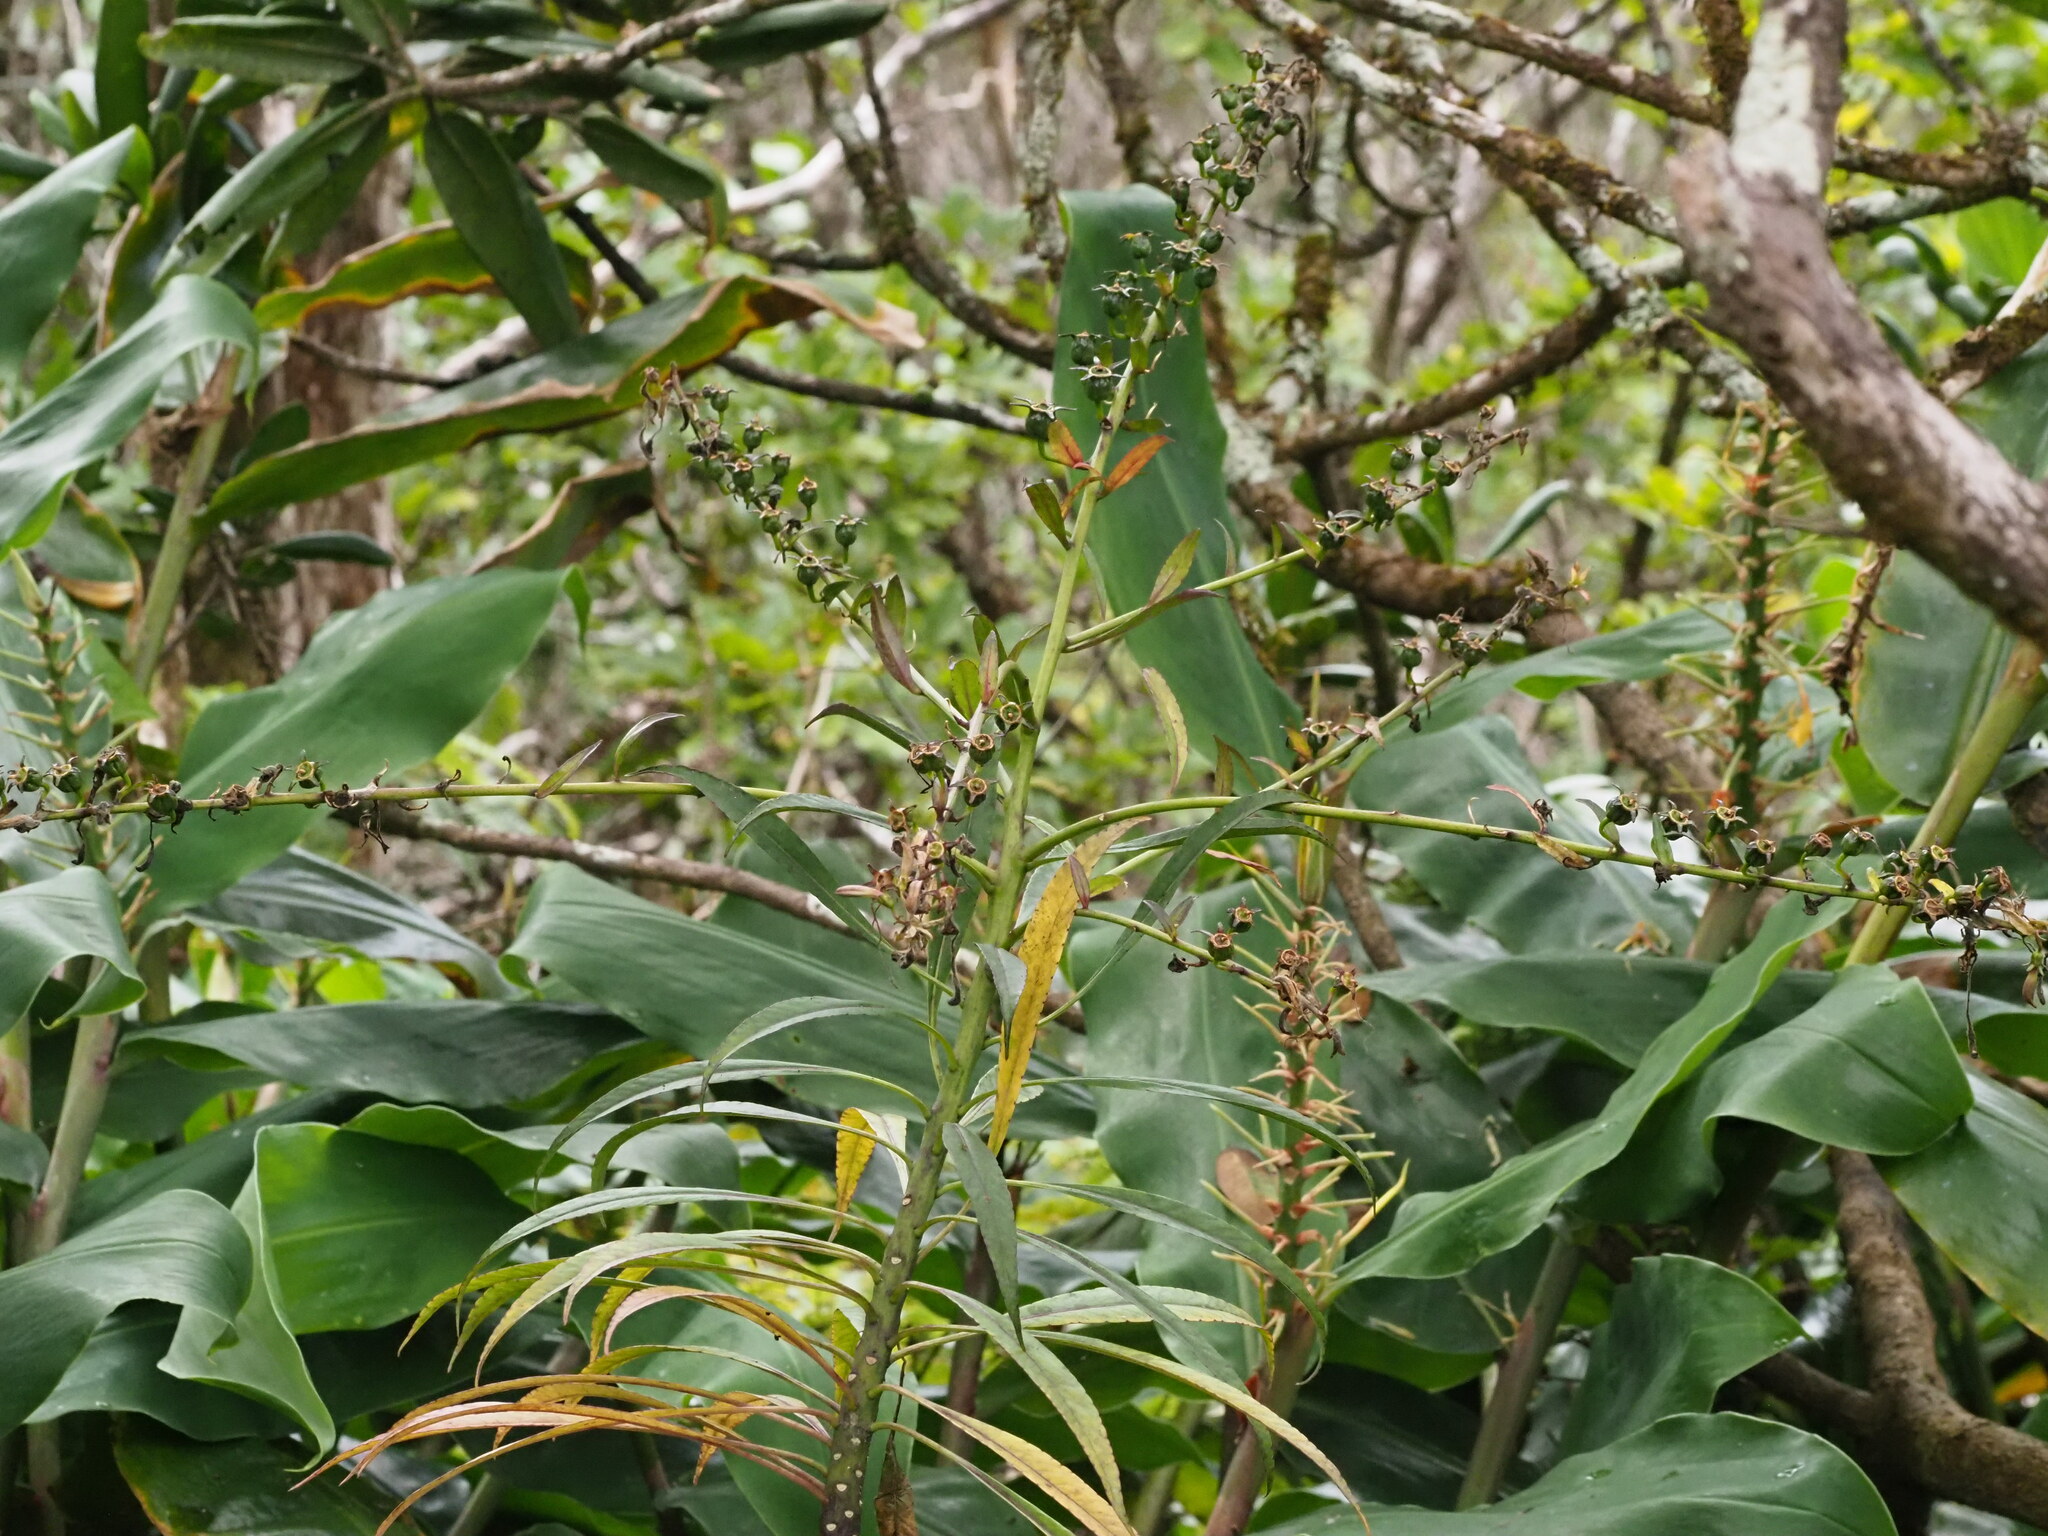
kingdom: Plantae
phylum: Tracheophyta
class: Magnoliopsida
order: Asterales
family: Campanulaceae
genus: Trematolobelia
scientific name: Trematolobelia kauaiensis
